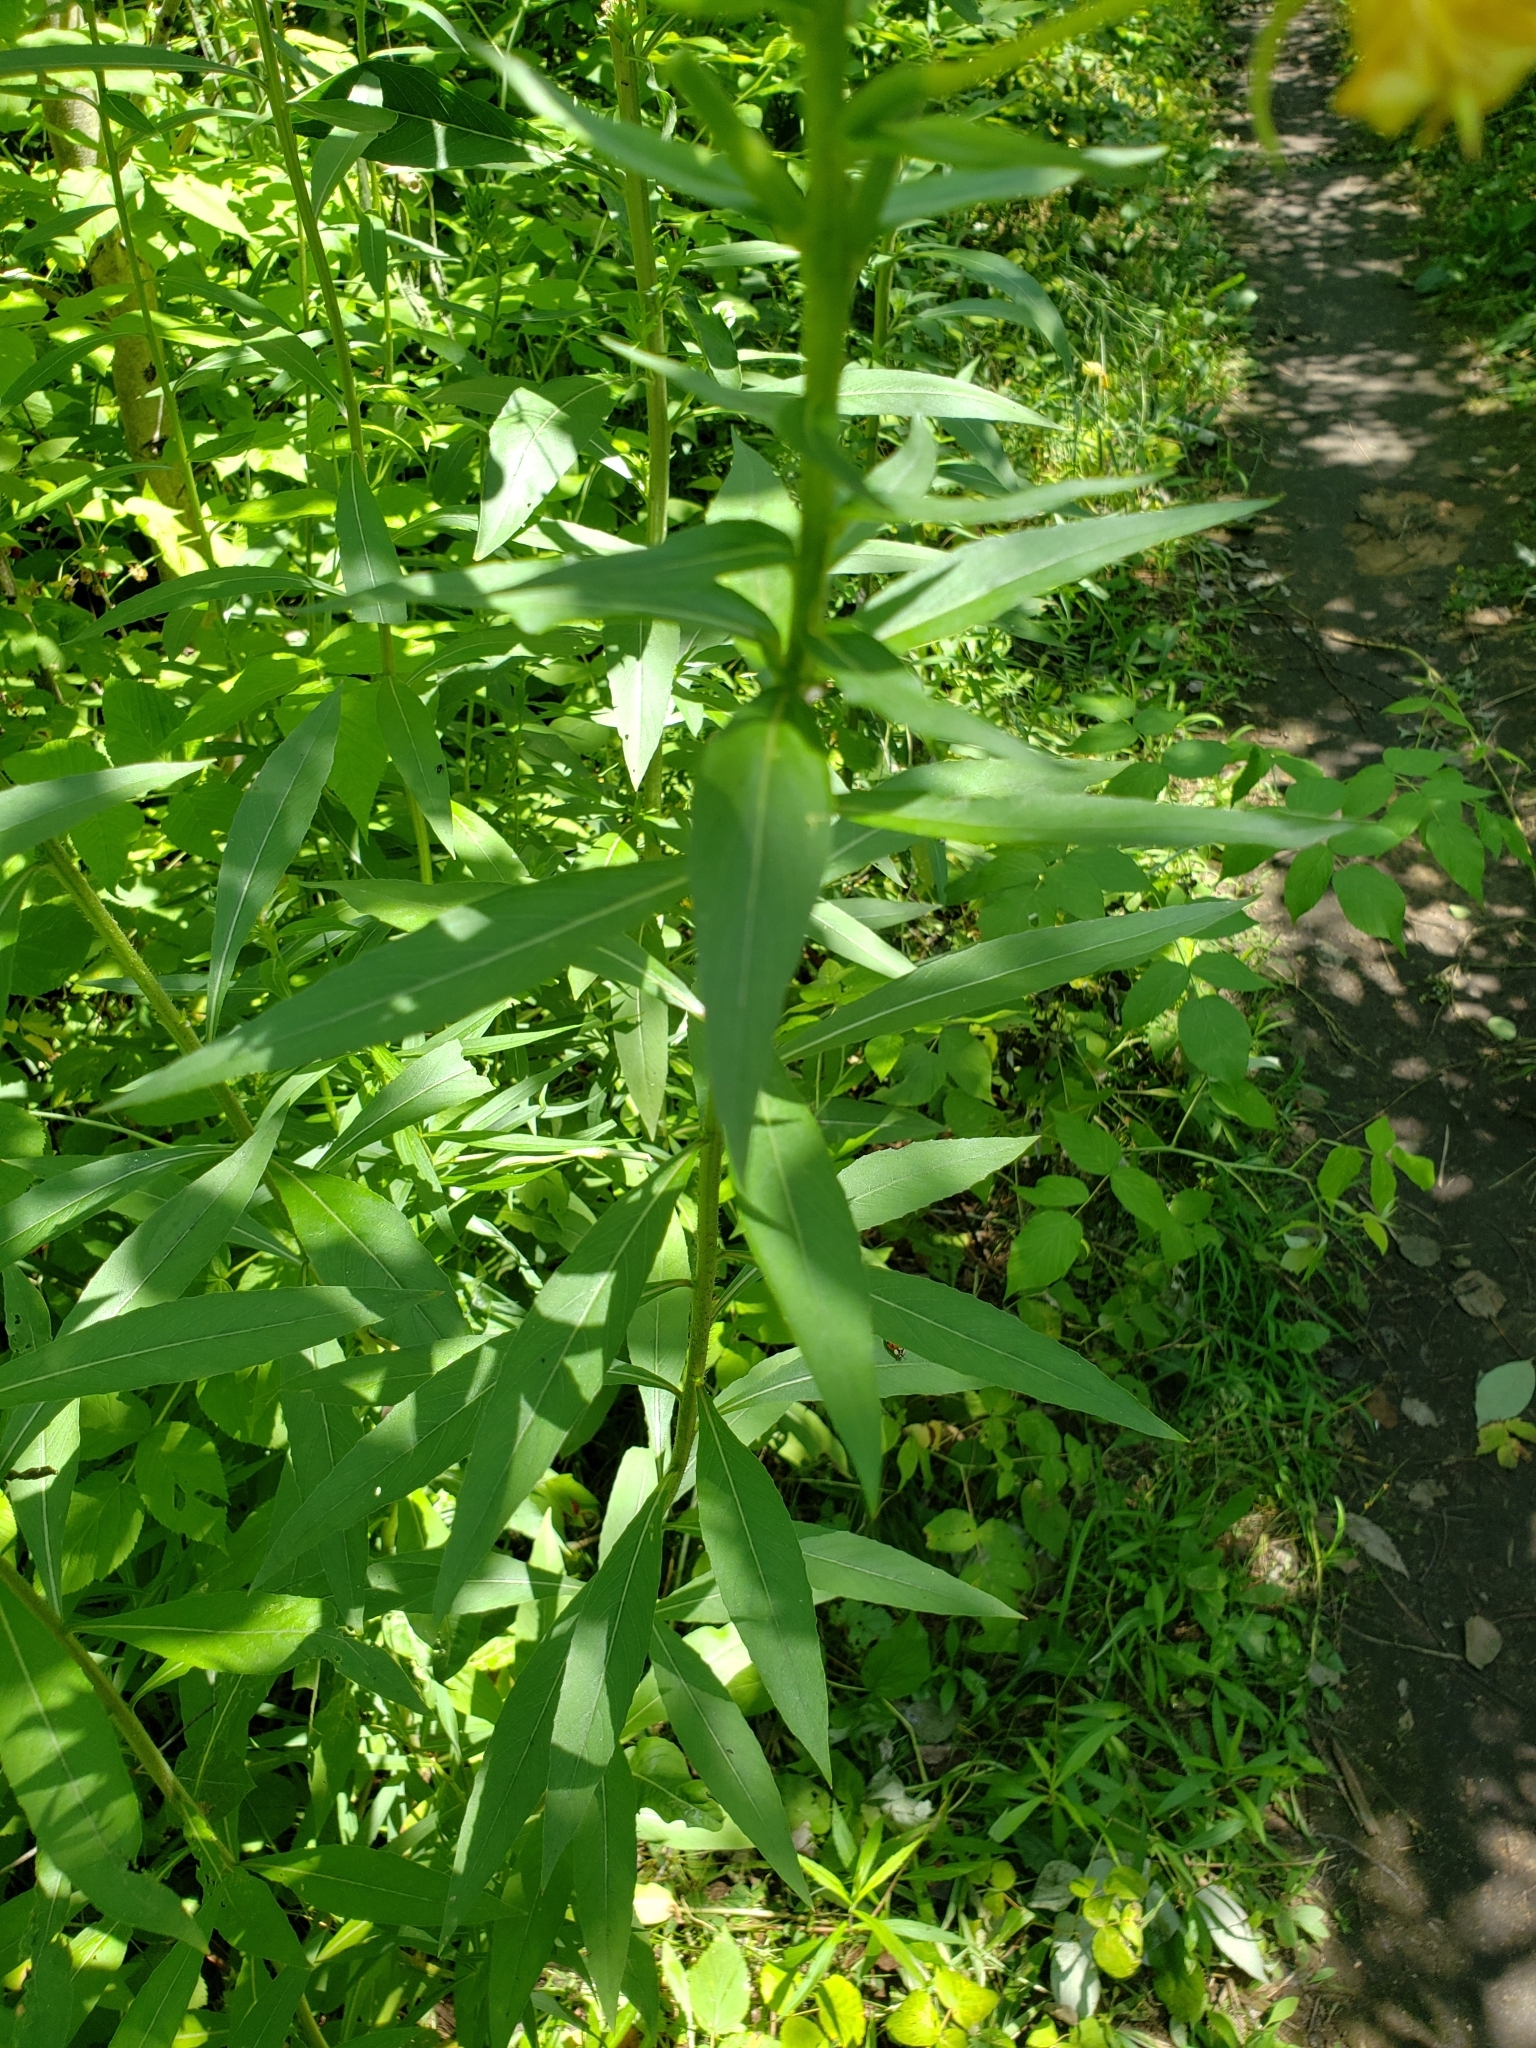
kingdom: Plantae
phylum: Tracheophyta
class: Magnoliopsida
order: Myrtales
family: Onagraceae
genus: Oenothera
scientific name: Oenothera biennis
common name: Common evening-primrose
